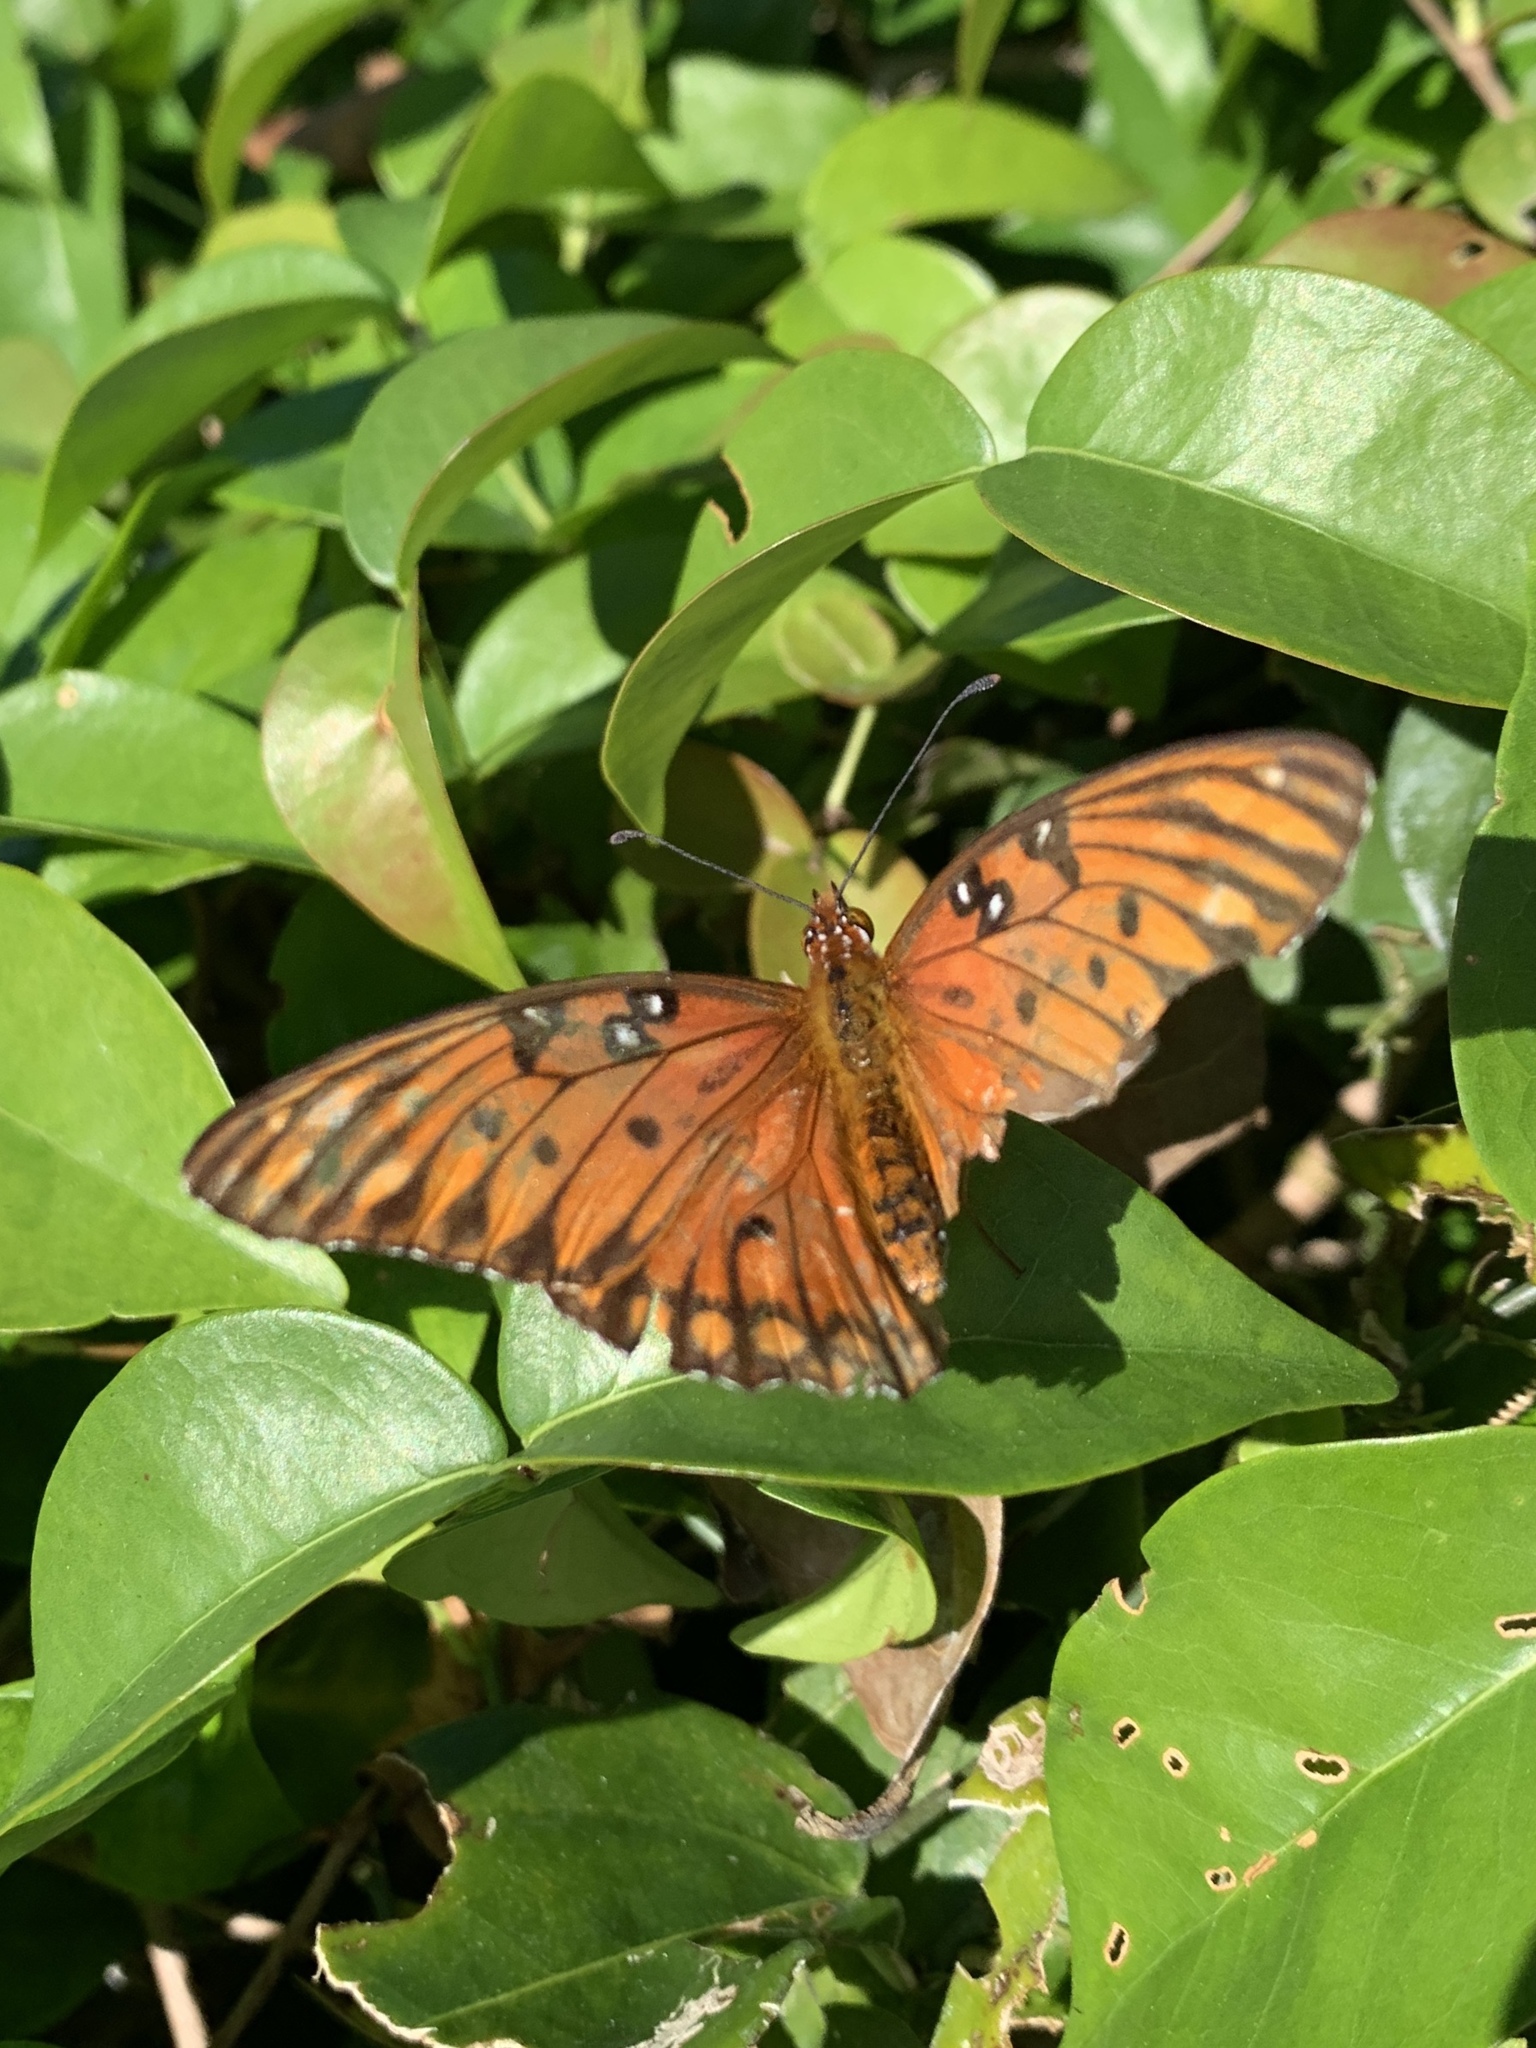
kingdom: Animalia
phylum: Arthropoda
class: Insecta
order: Lepidoptera
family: Nymphalidae
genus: Dione
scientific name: Dione vanillae
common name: Gulf fritillary
